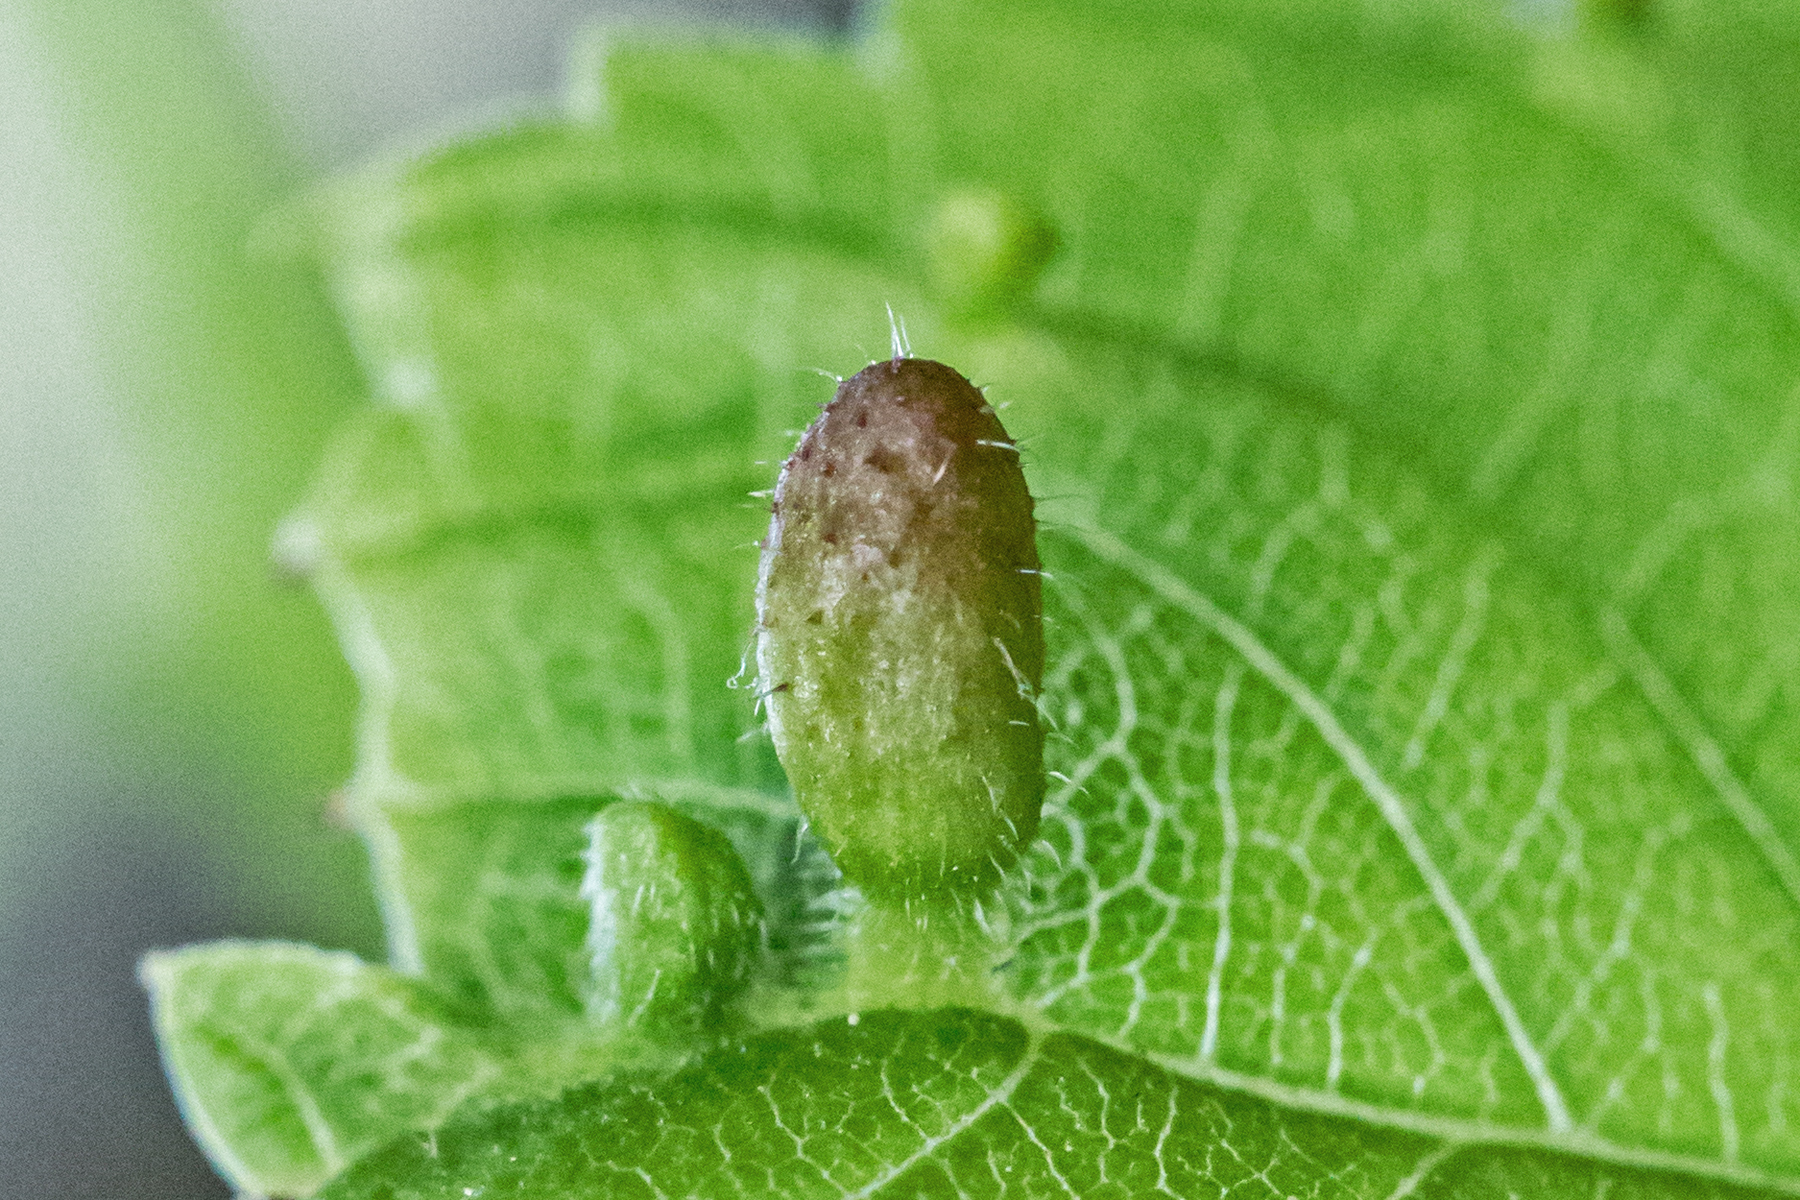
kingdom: Animalia
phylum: Arthropoda
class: Arachnida
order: Trombidiformes
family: Eriophyidae
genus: Aceria
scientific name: Aceria
